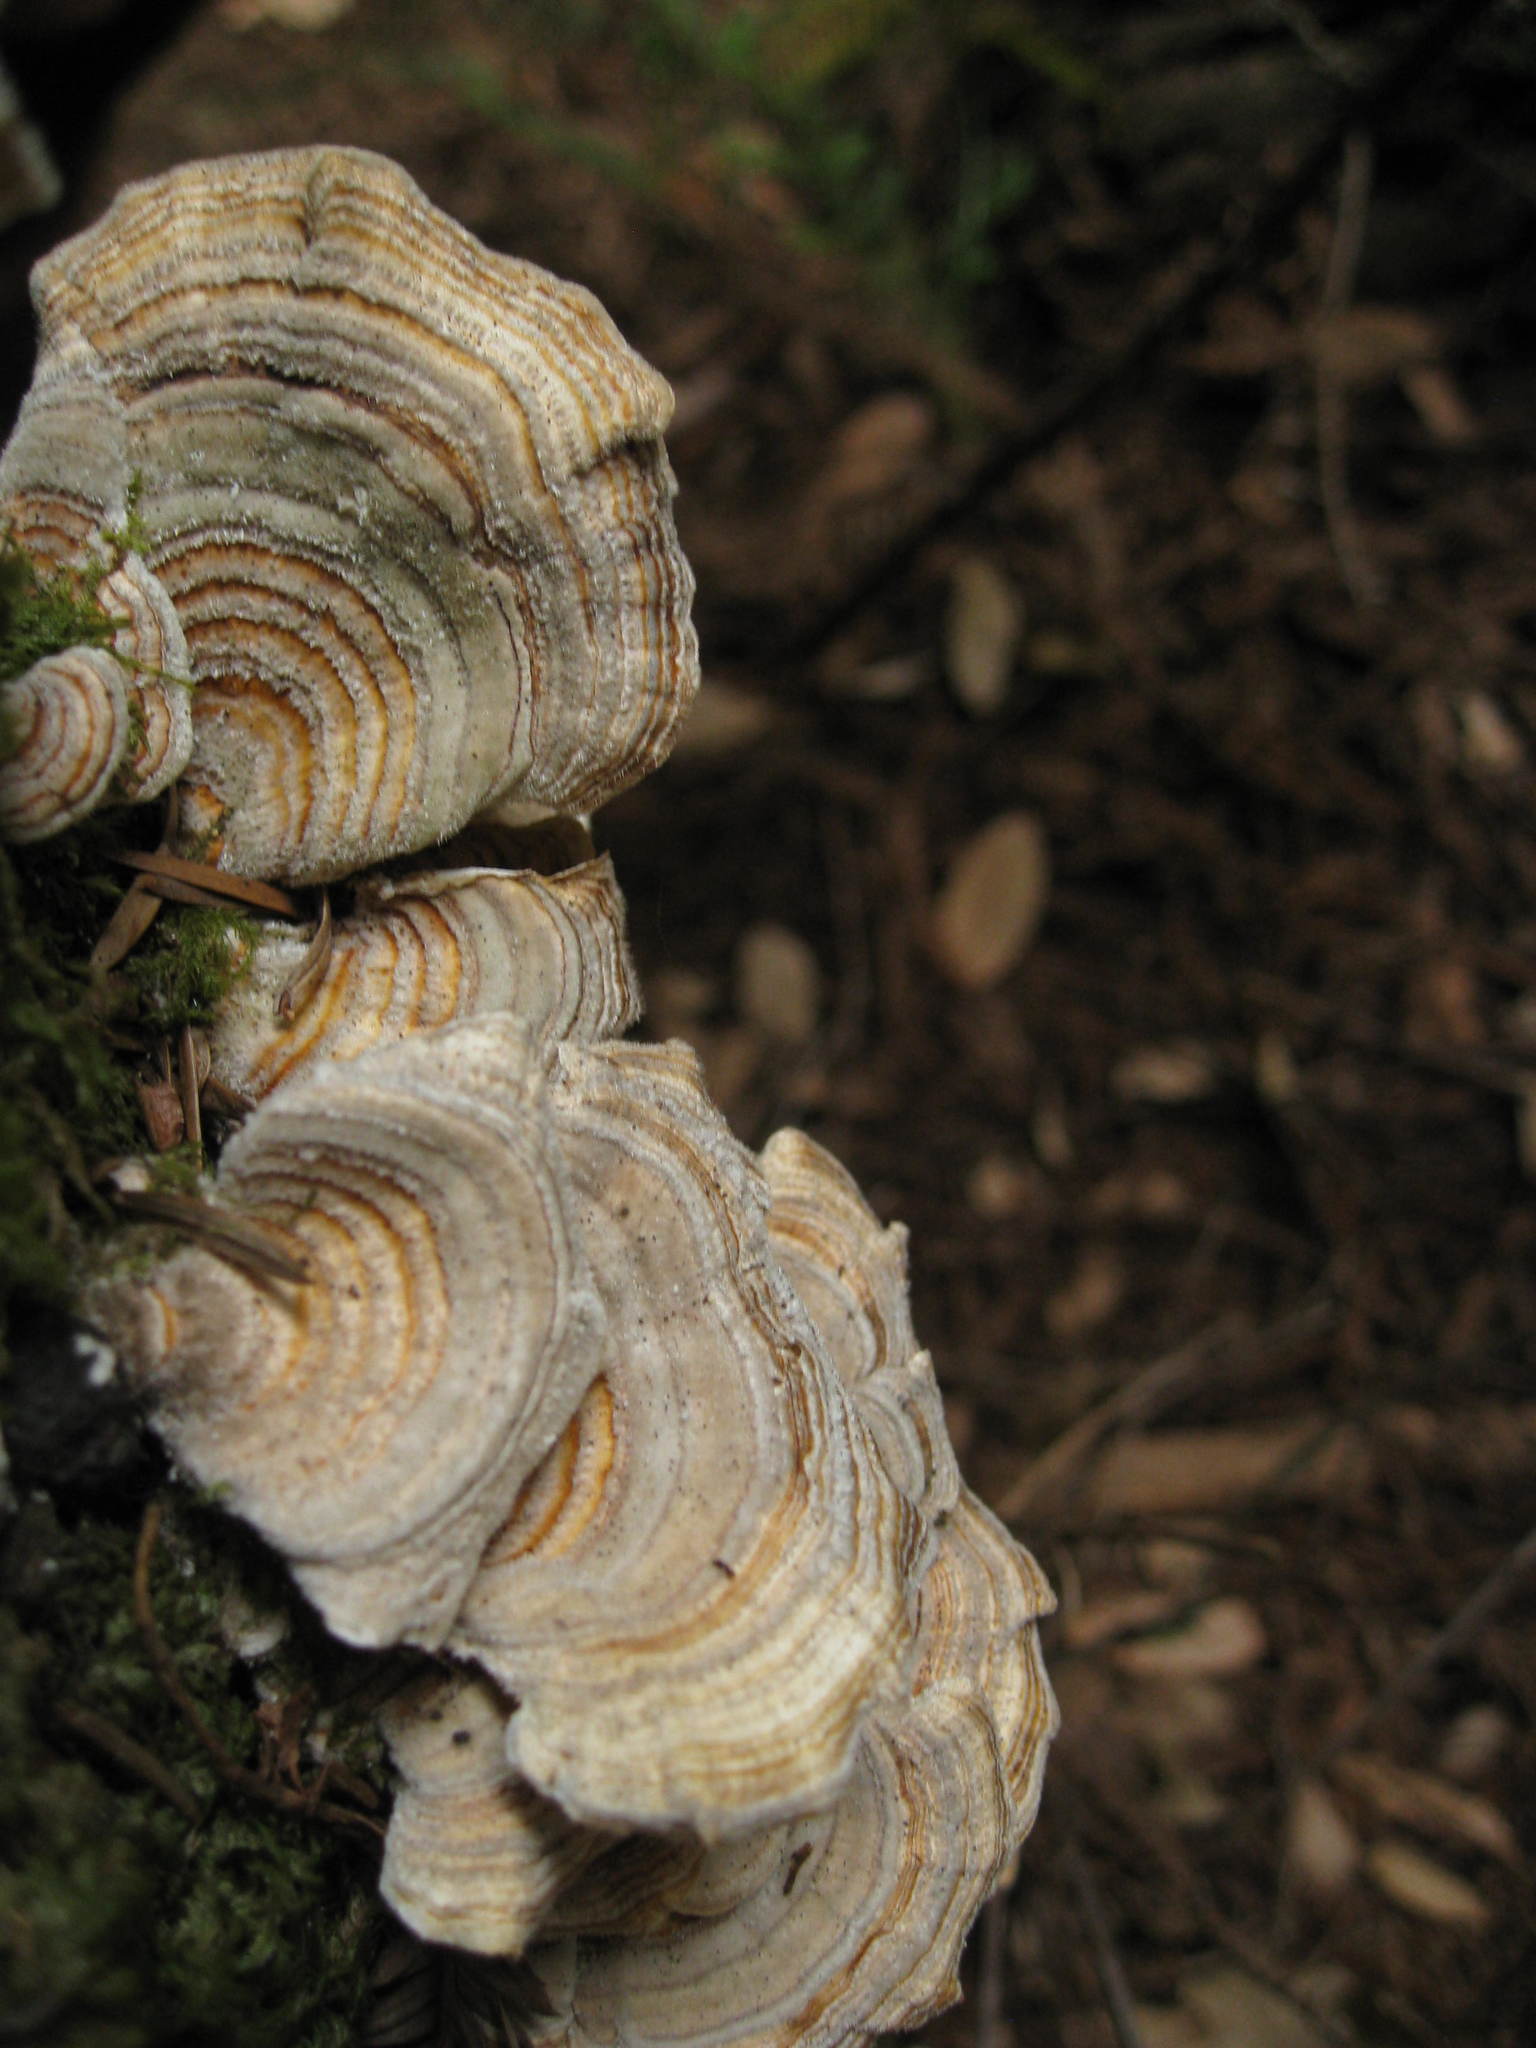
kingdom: Fungi
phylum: Basidiomycota
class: Agaricomycetes
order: Polyporales
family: Polyporaceae
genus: Trametes
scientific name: Trametes versicolor
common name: Turkeytail
